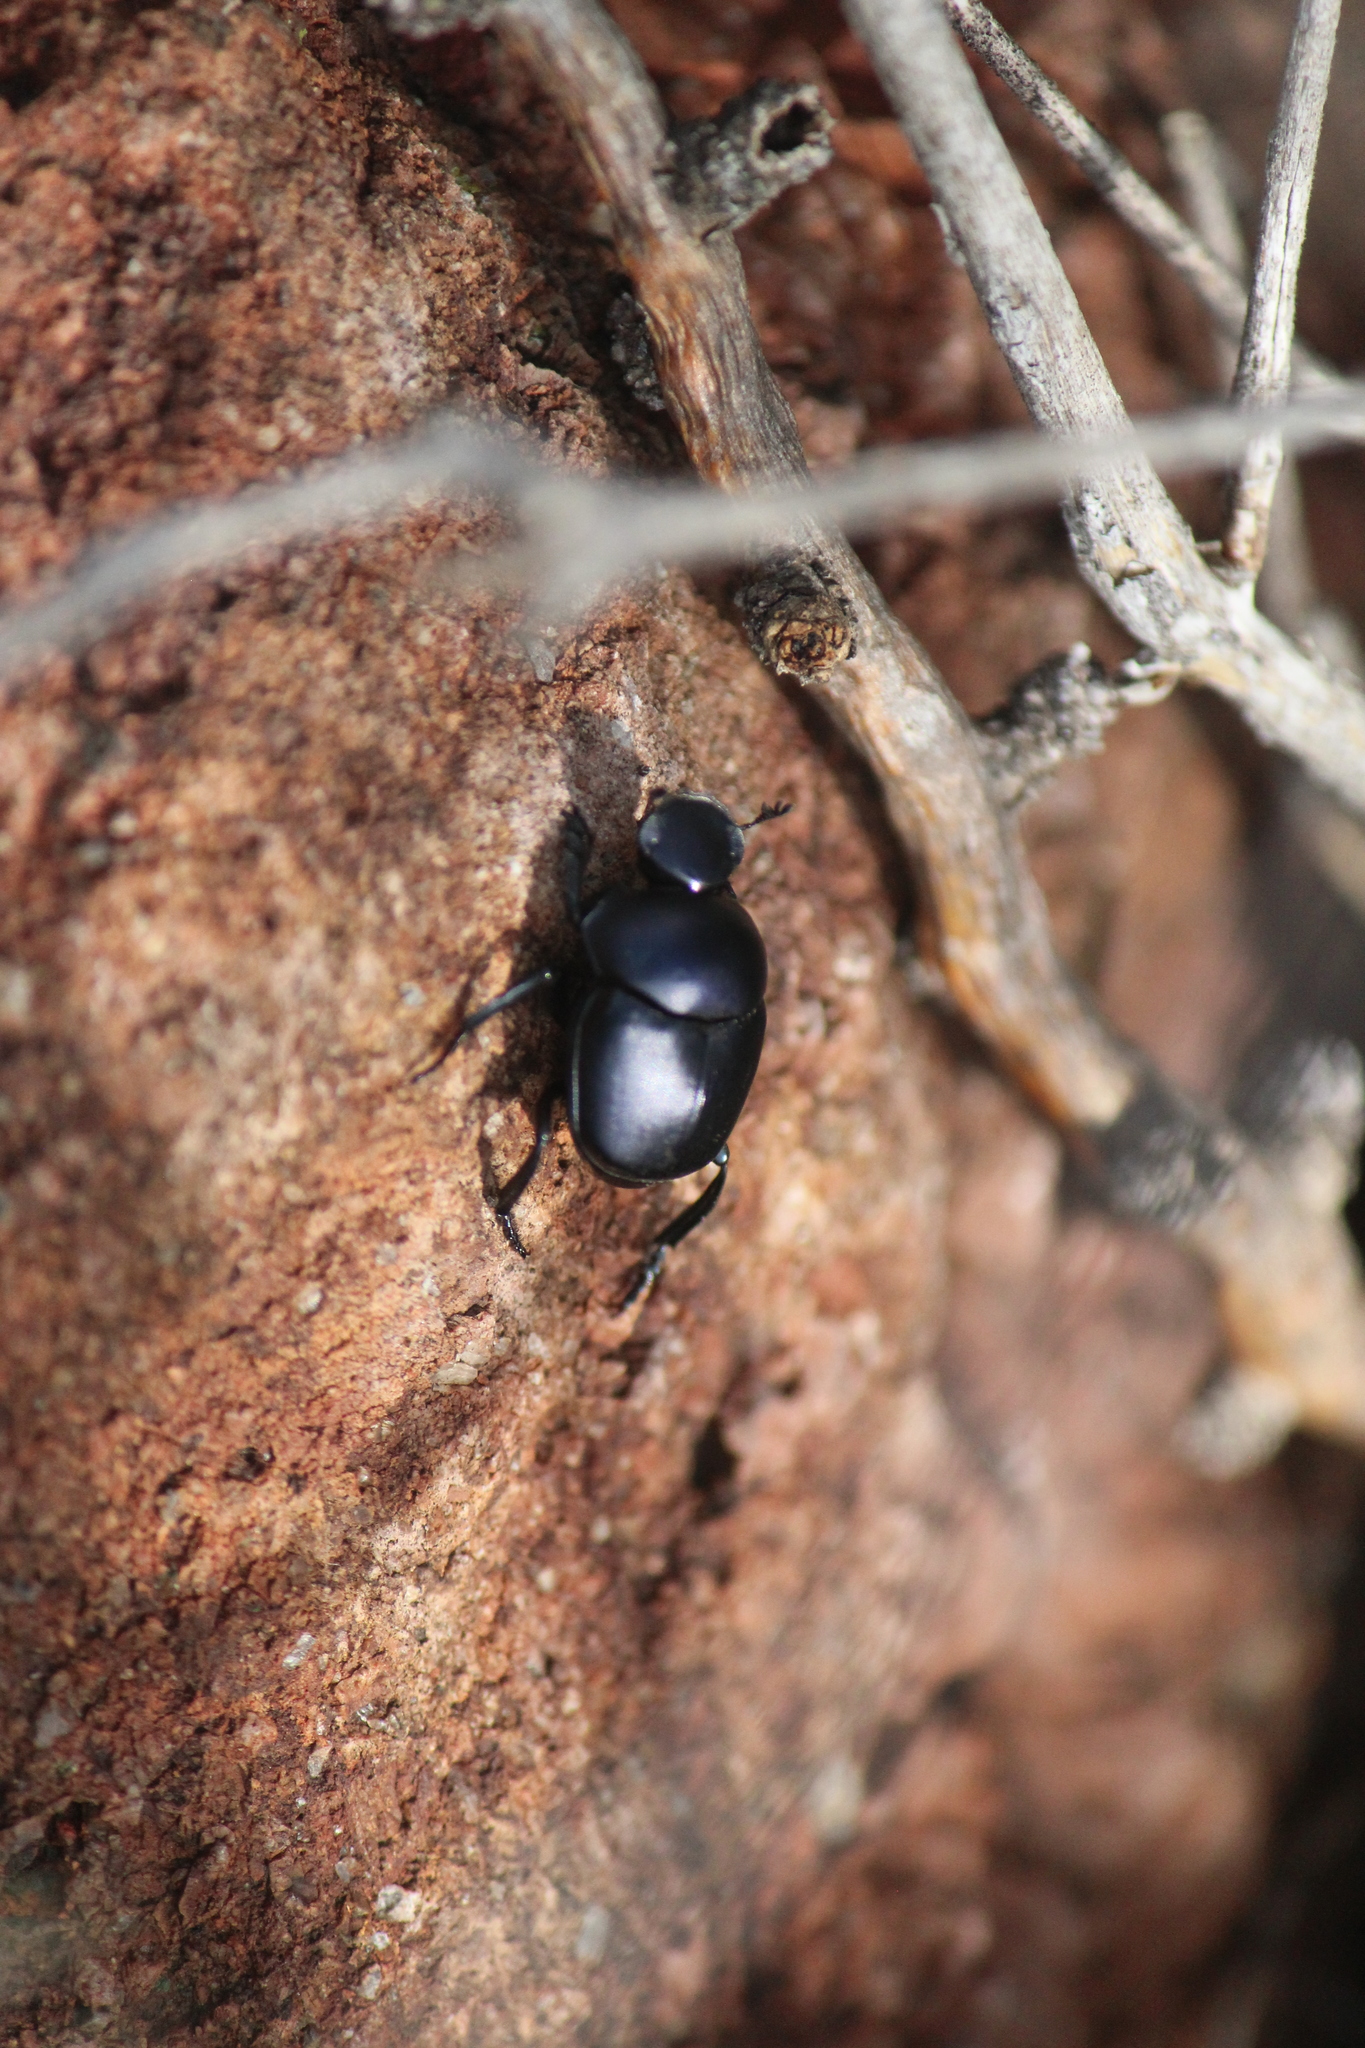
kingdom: Animalia
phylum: Arthropoda
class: Insecta
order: Coleoptera
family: Scarabaeidae
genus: Canthon
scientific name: Canthon humectus
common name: Tumblebug
